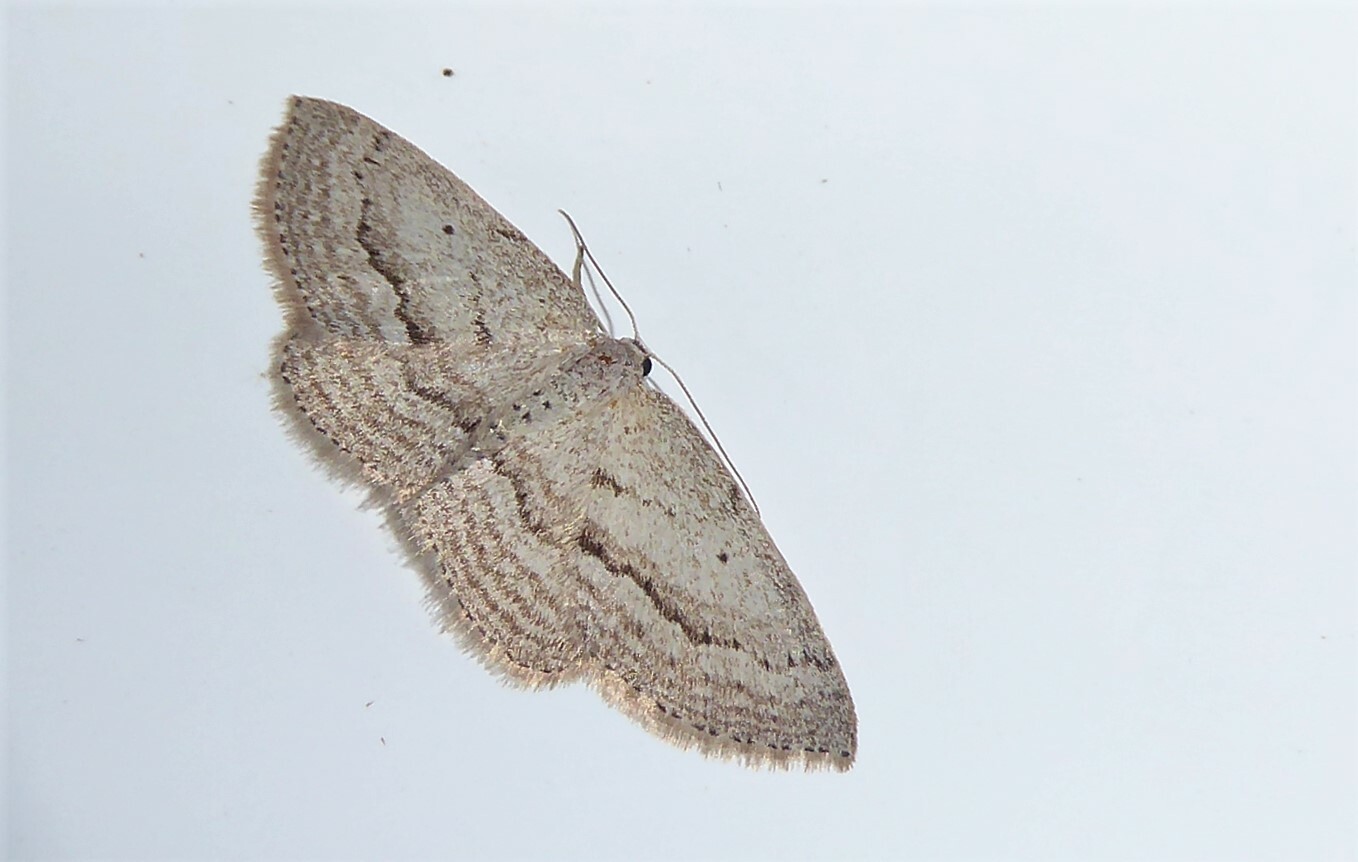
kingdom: Animalia
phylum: Arthropoda
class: Insecta
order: Lepidoptera
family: Geometridae
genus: Poecilasthena
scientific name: Poecilasthena schistaria
